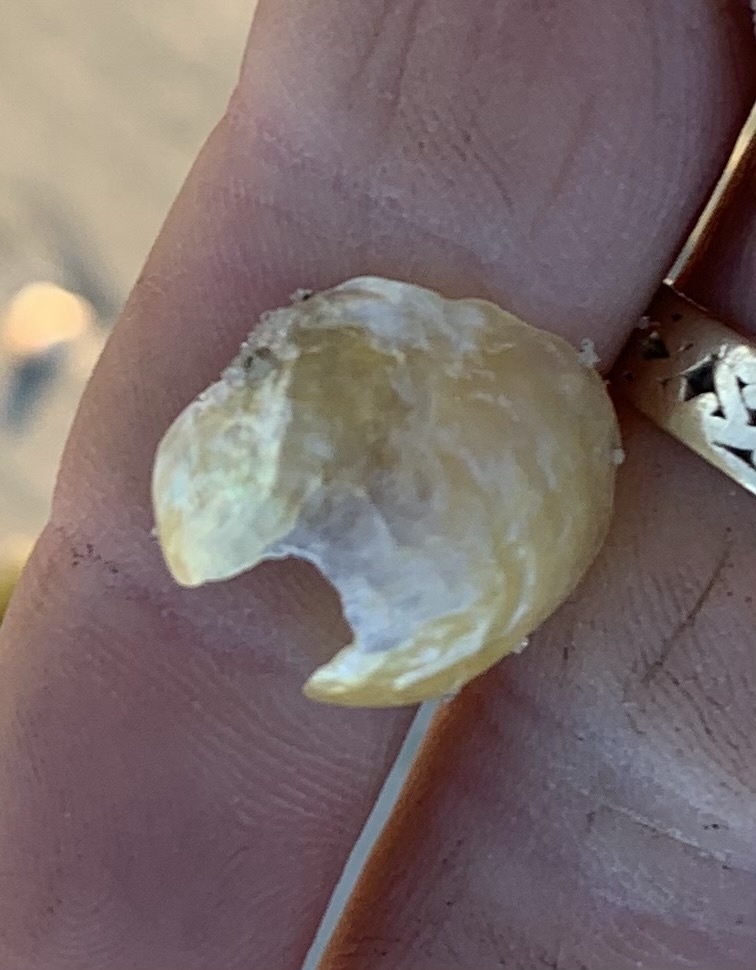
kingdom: Animalia
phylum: Mollusca
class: Bivalvia
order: Pectinida
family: Anomiidae
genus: Anomia
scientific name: Anomia simplex
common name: Common jingle shell
